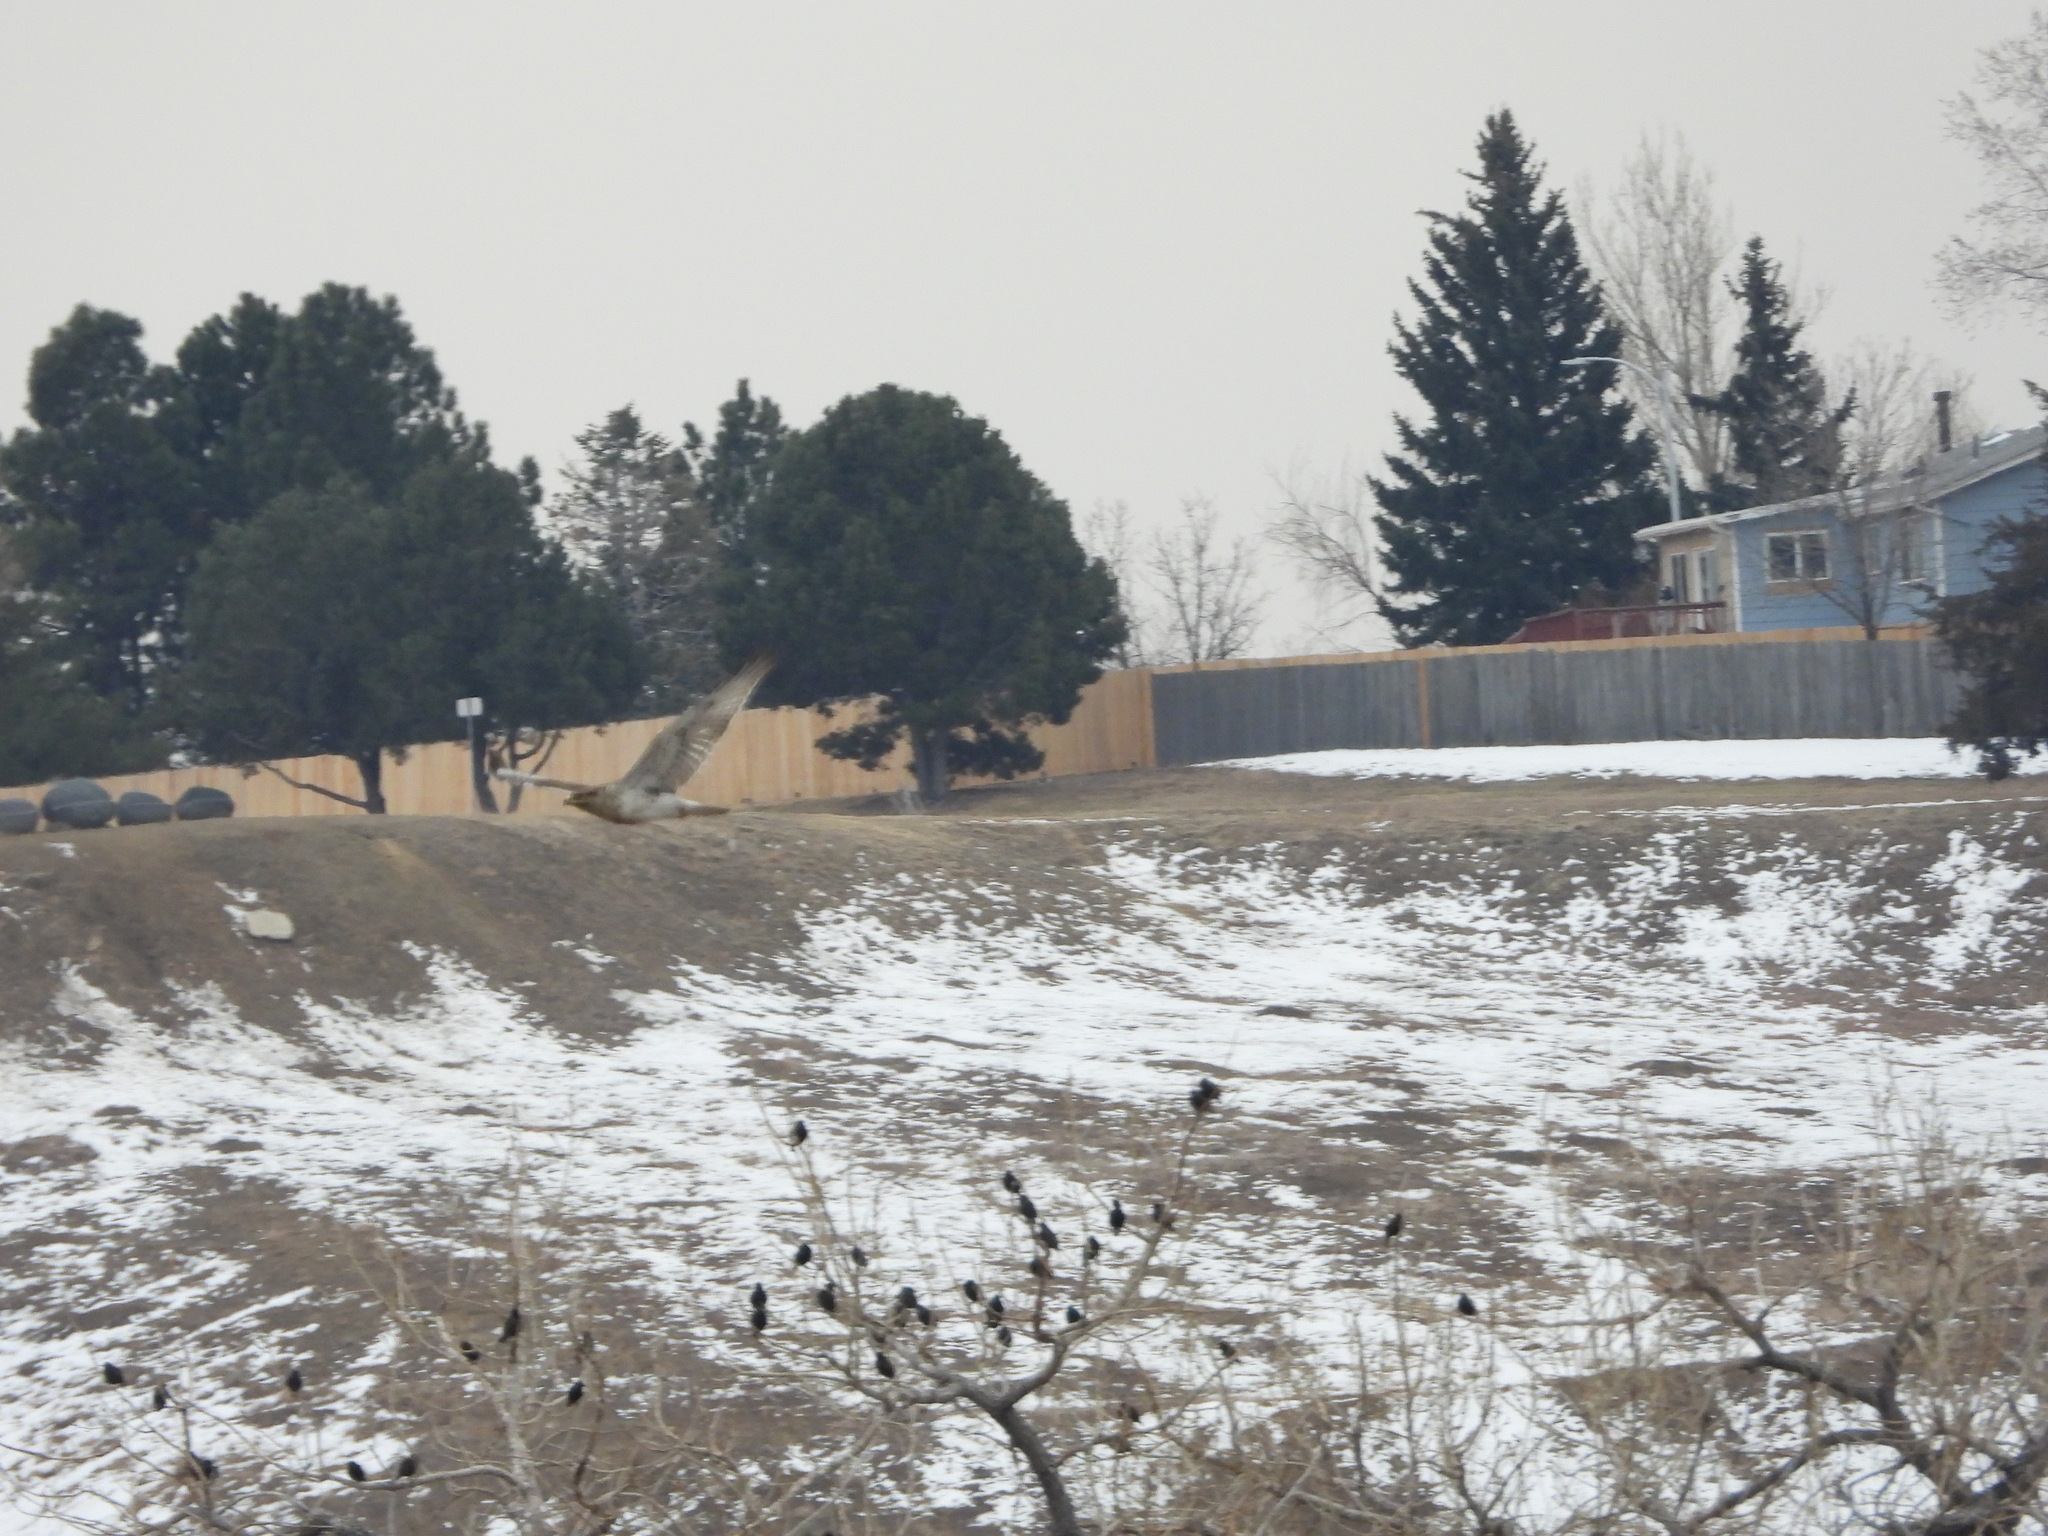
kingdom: Animalia
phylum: Chordata
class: Aves
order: Passeriformes
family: Sturnidae
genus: Sturnus
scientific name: Sturnus vulgaris
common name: Common starling
